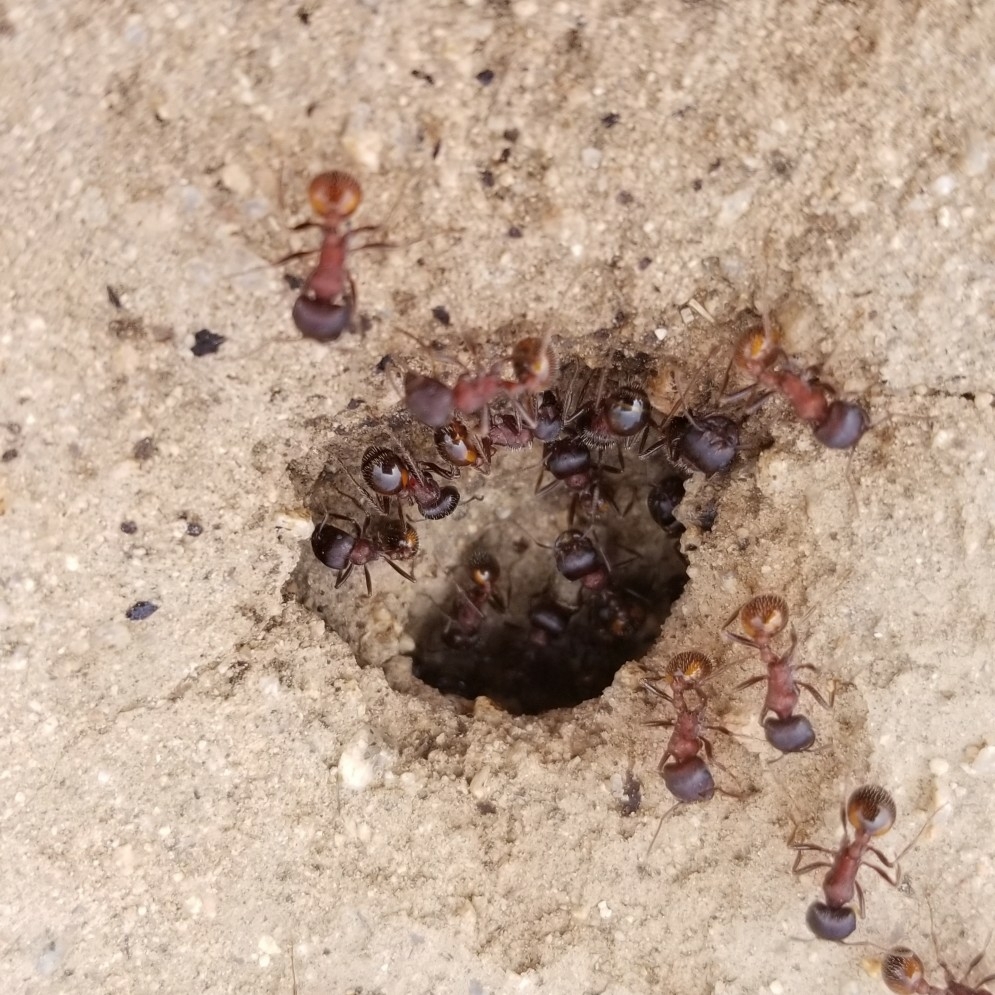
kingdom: Animalia
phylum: Arthropoda
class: Insecta
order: Hymenoptera
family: Formicidae
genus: Pogonomyrmex
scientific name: Pogonomyrmex rugosus
